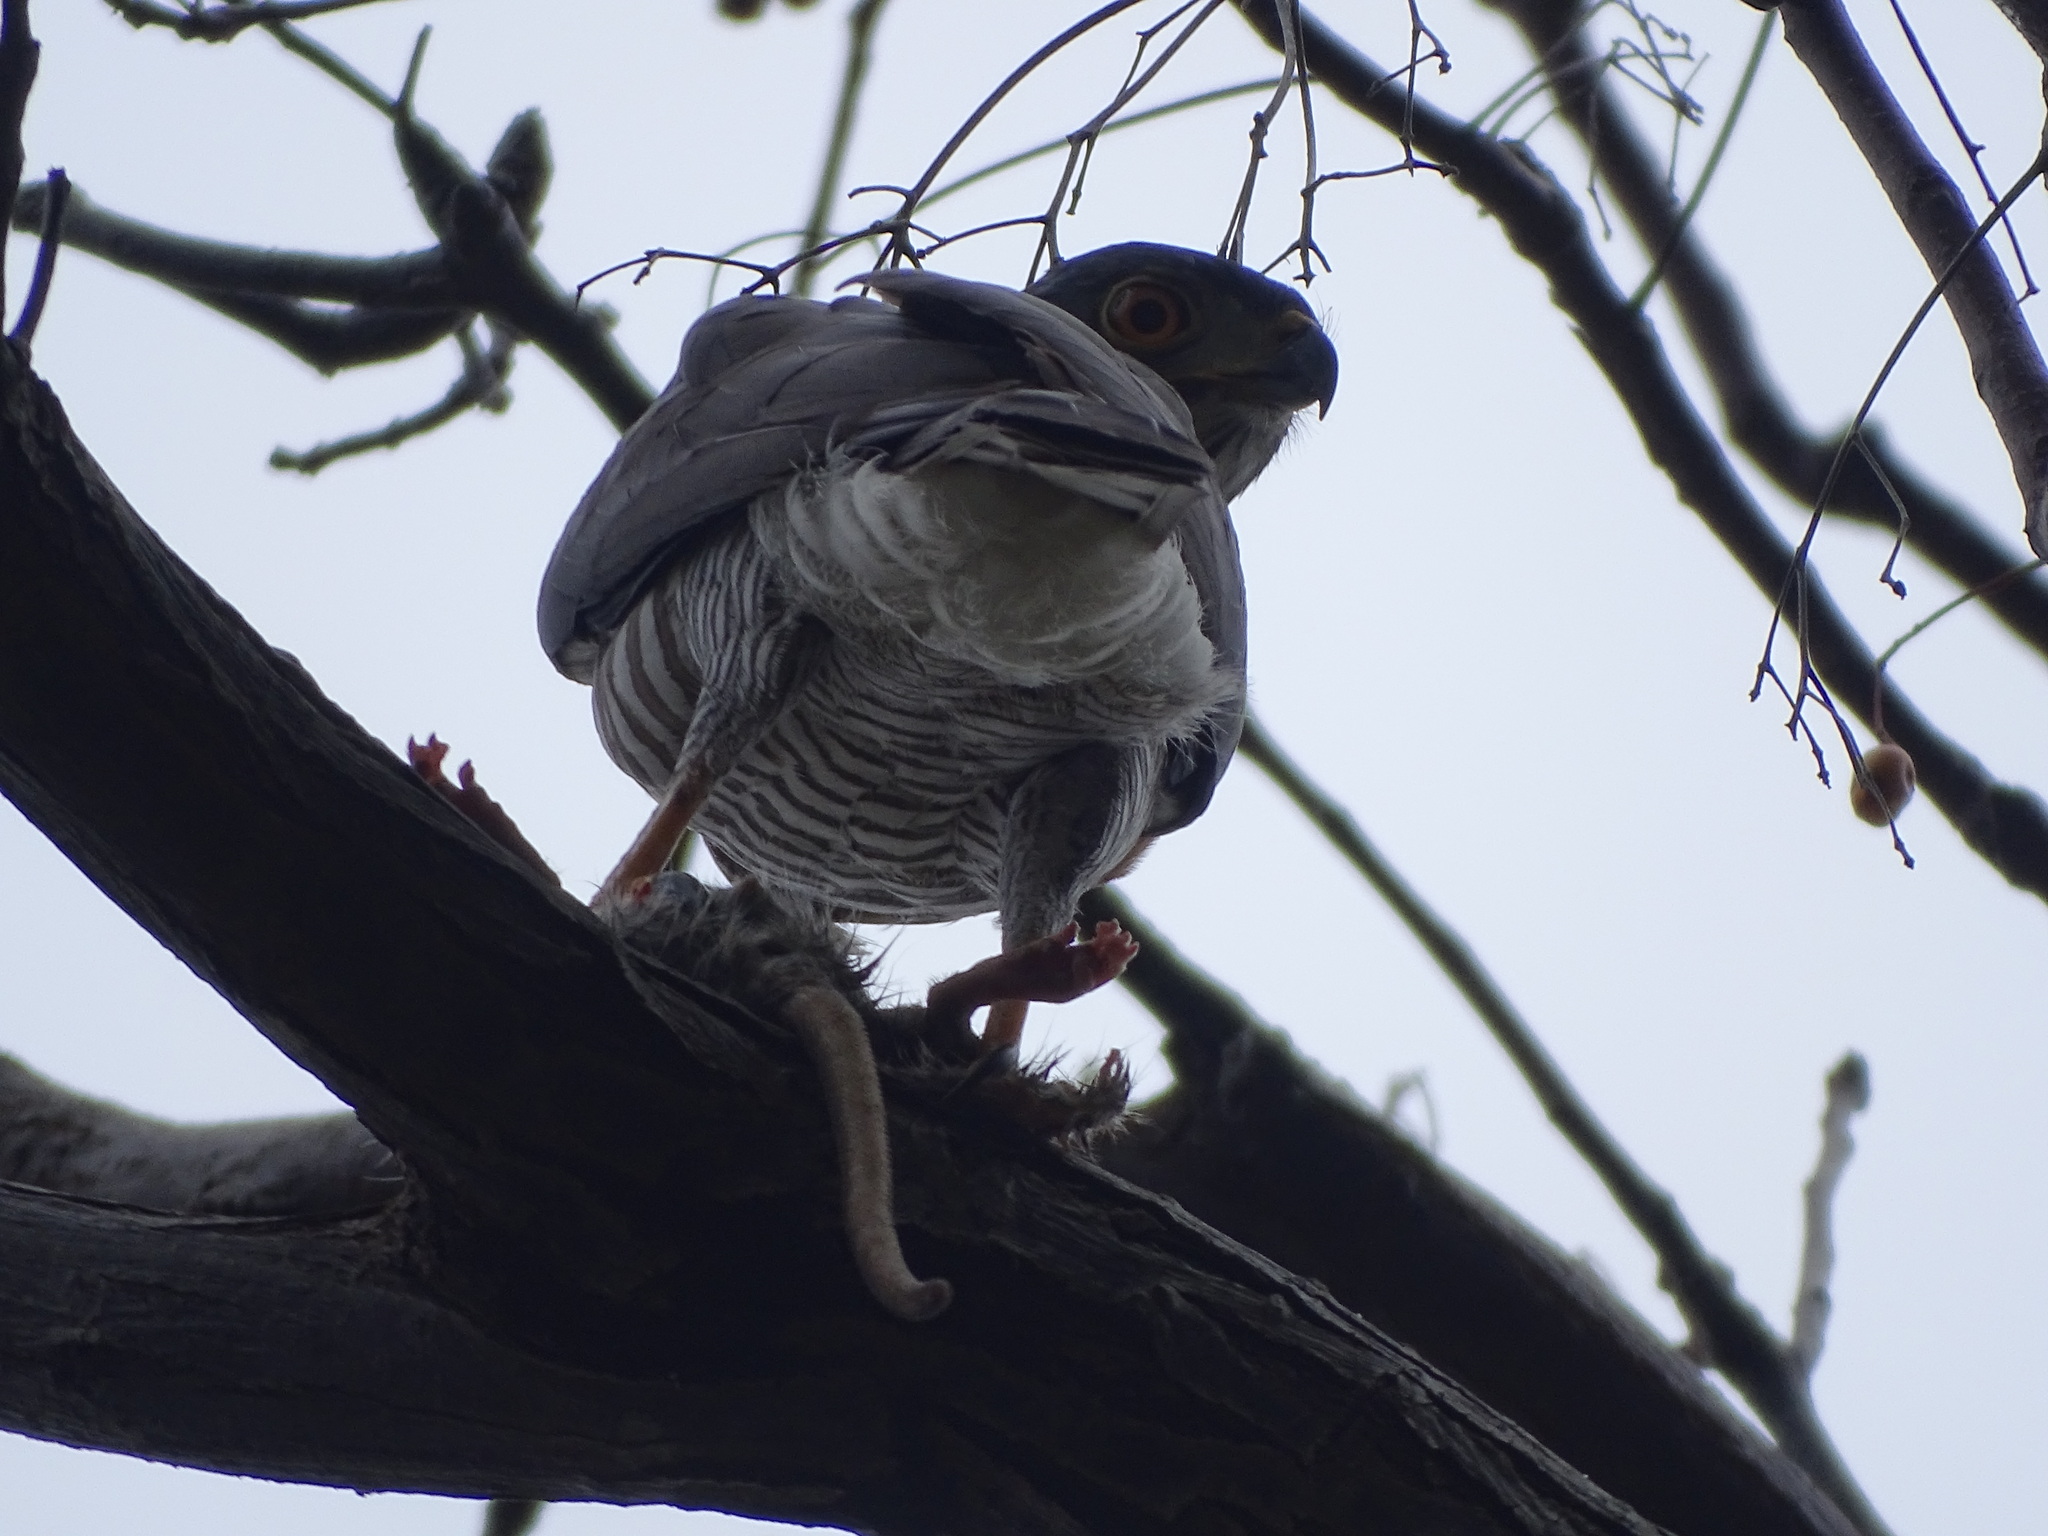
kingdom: Animalia
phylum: Chordata
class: Aves
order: Accipitriformes
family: Accipitridae
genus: Accipiter
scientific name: Accipiter trivirgatus
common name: Crested goshawk
